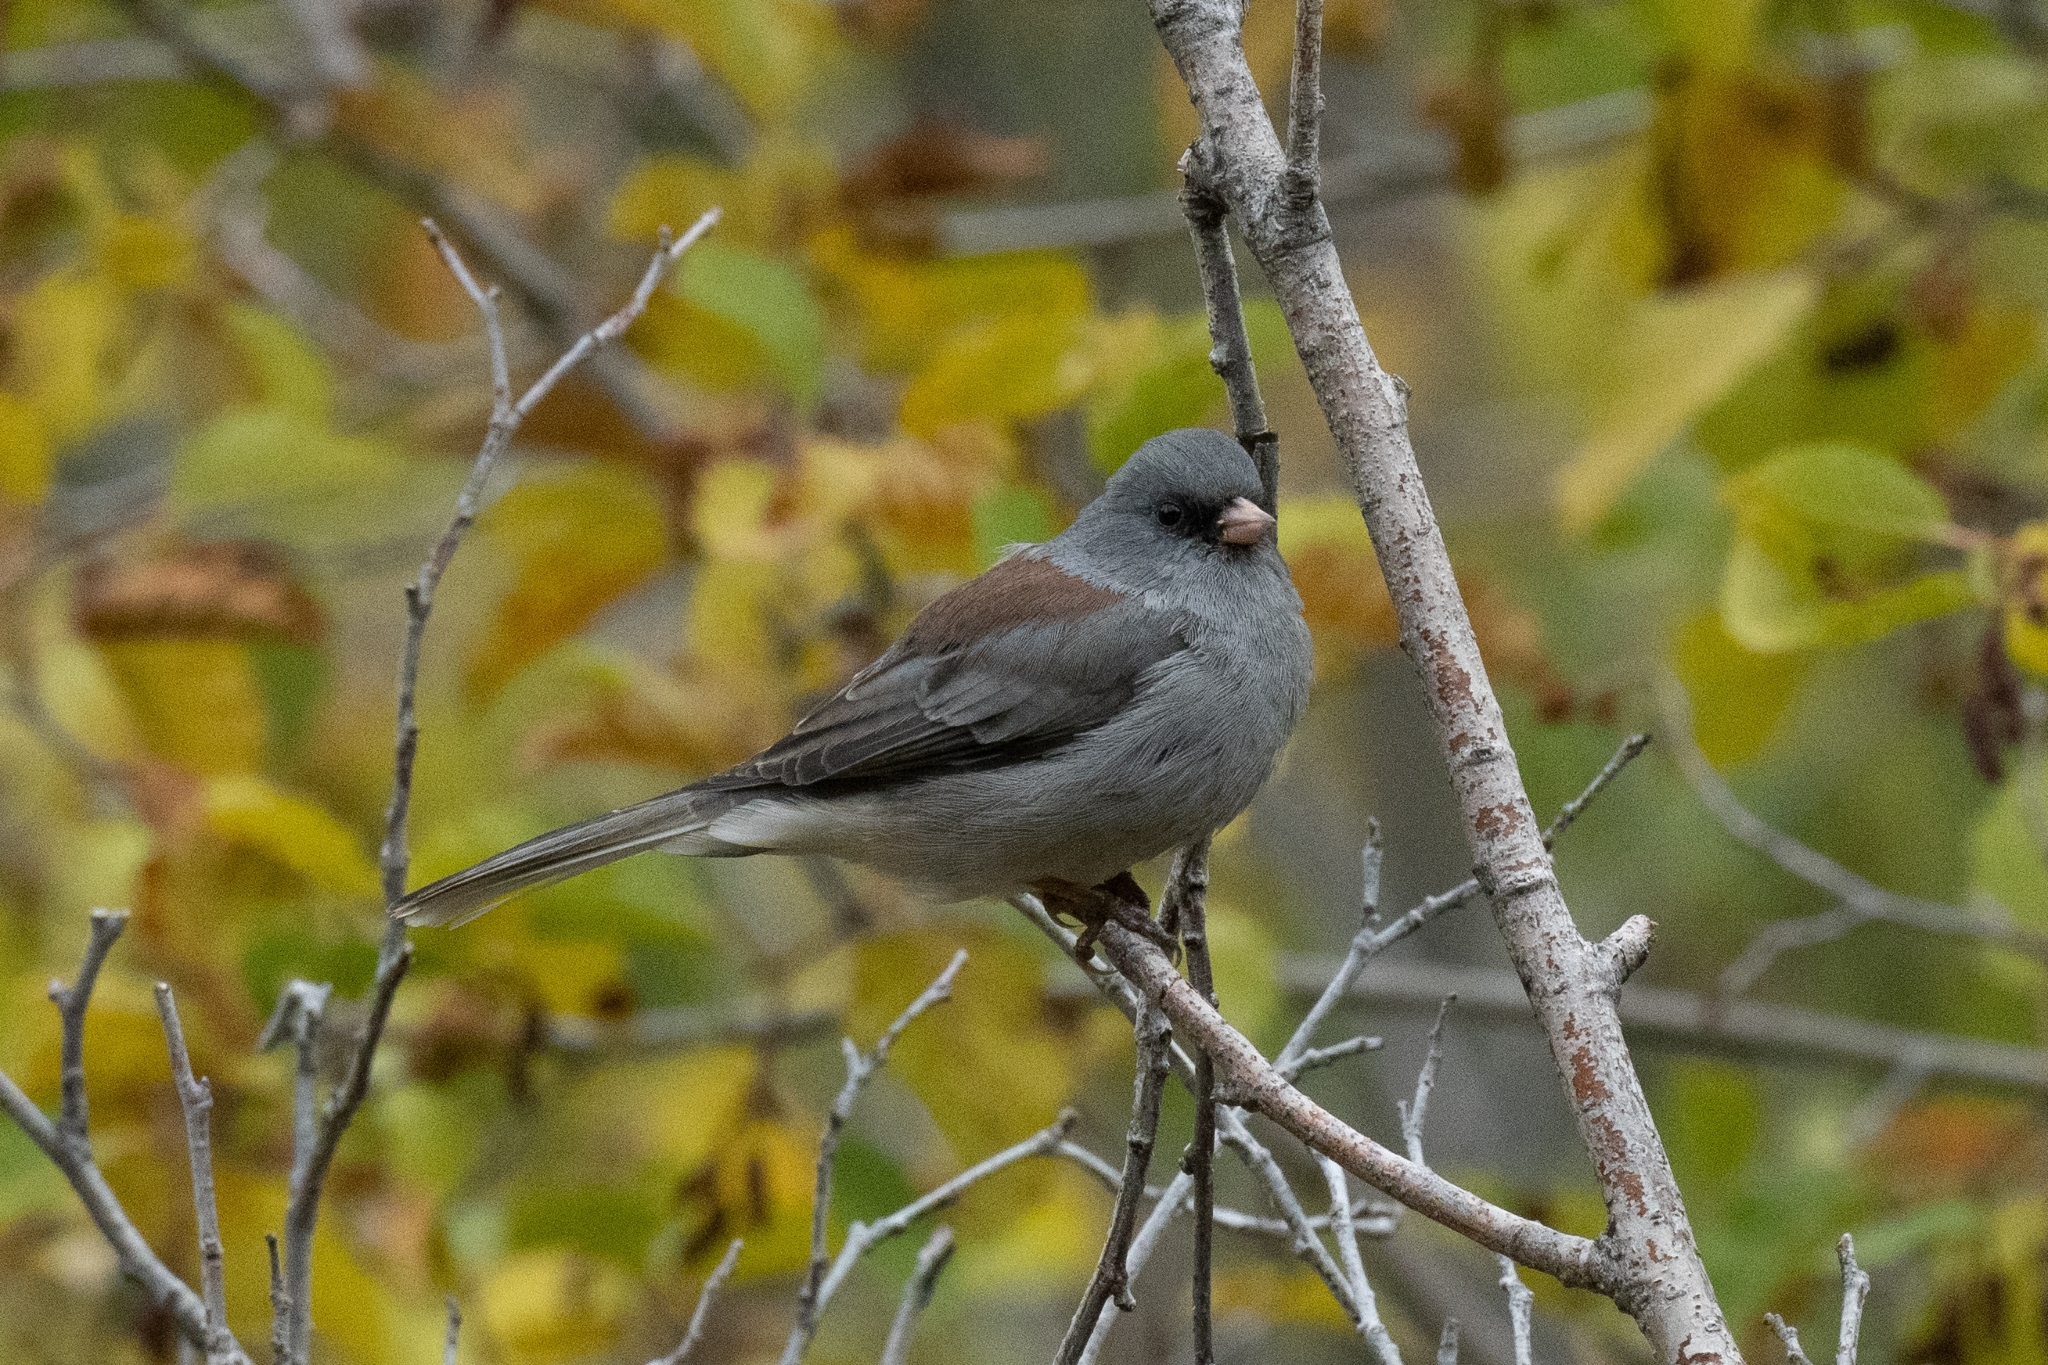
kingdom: Animalia
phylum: Chordata
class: Aves
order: Passeriformes
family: Passerellidae
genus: Junco
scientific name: Junco hyemalis
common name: Dark-eyed junco
